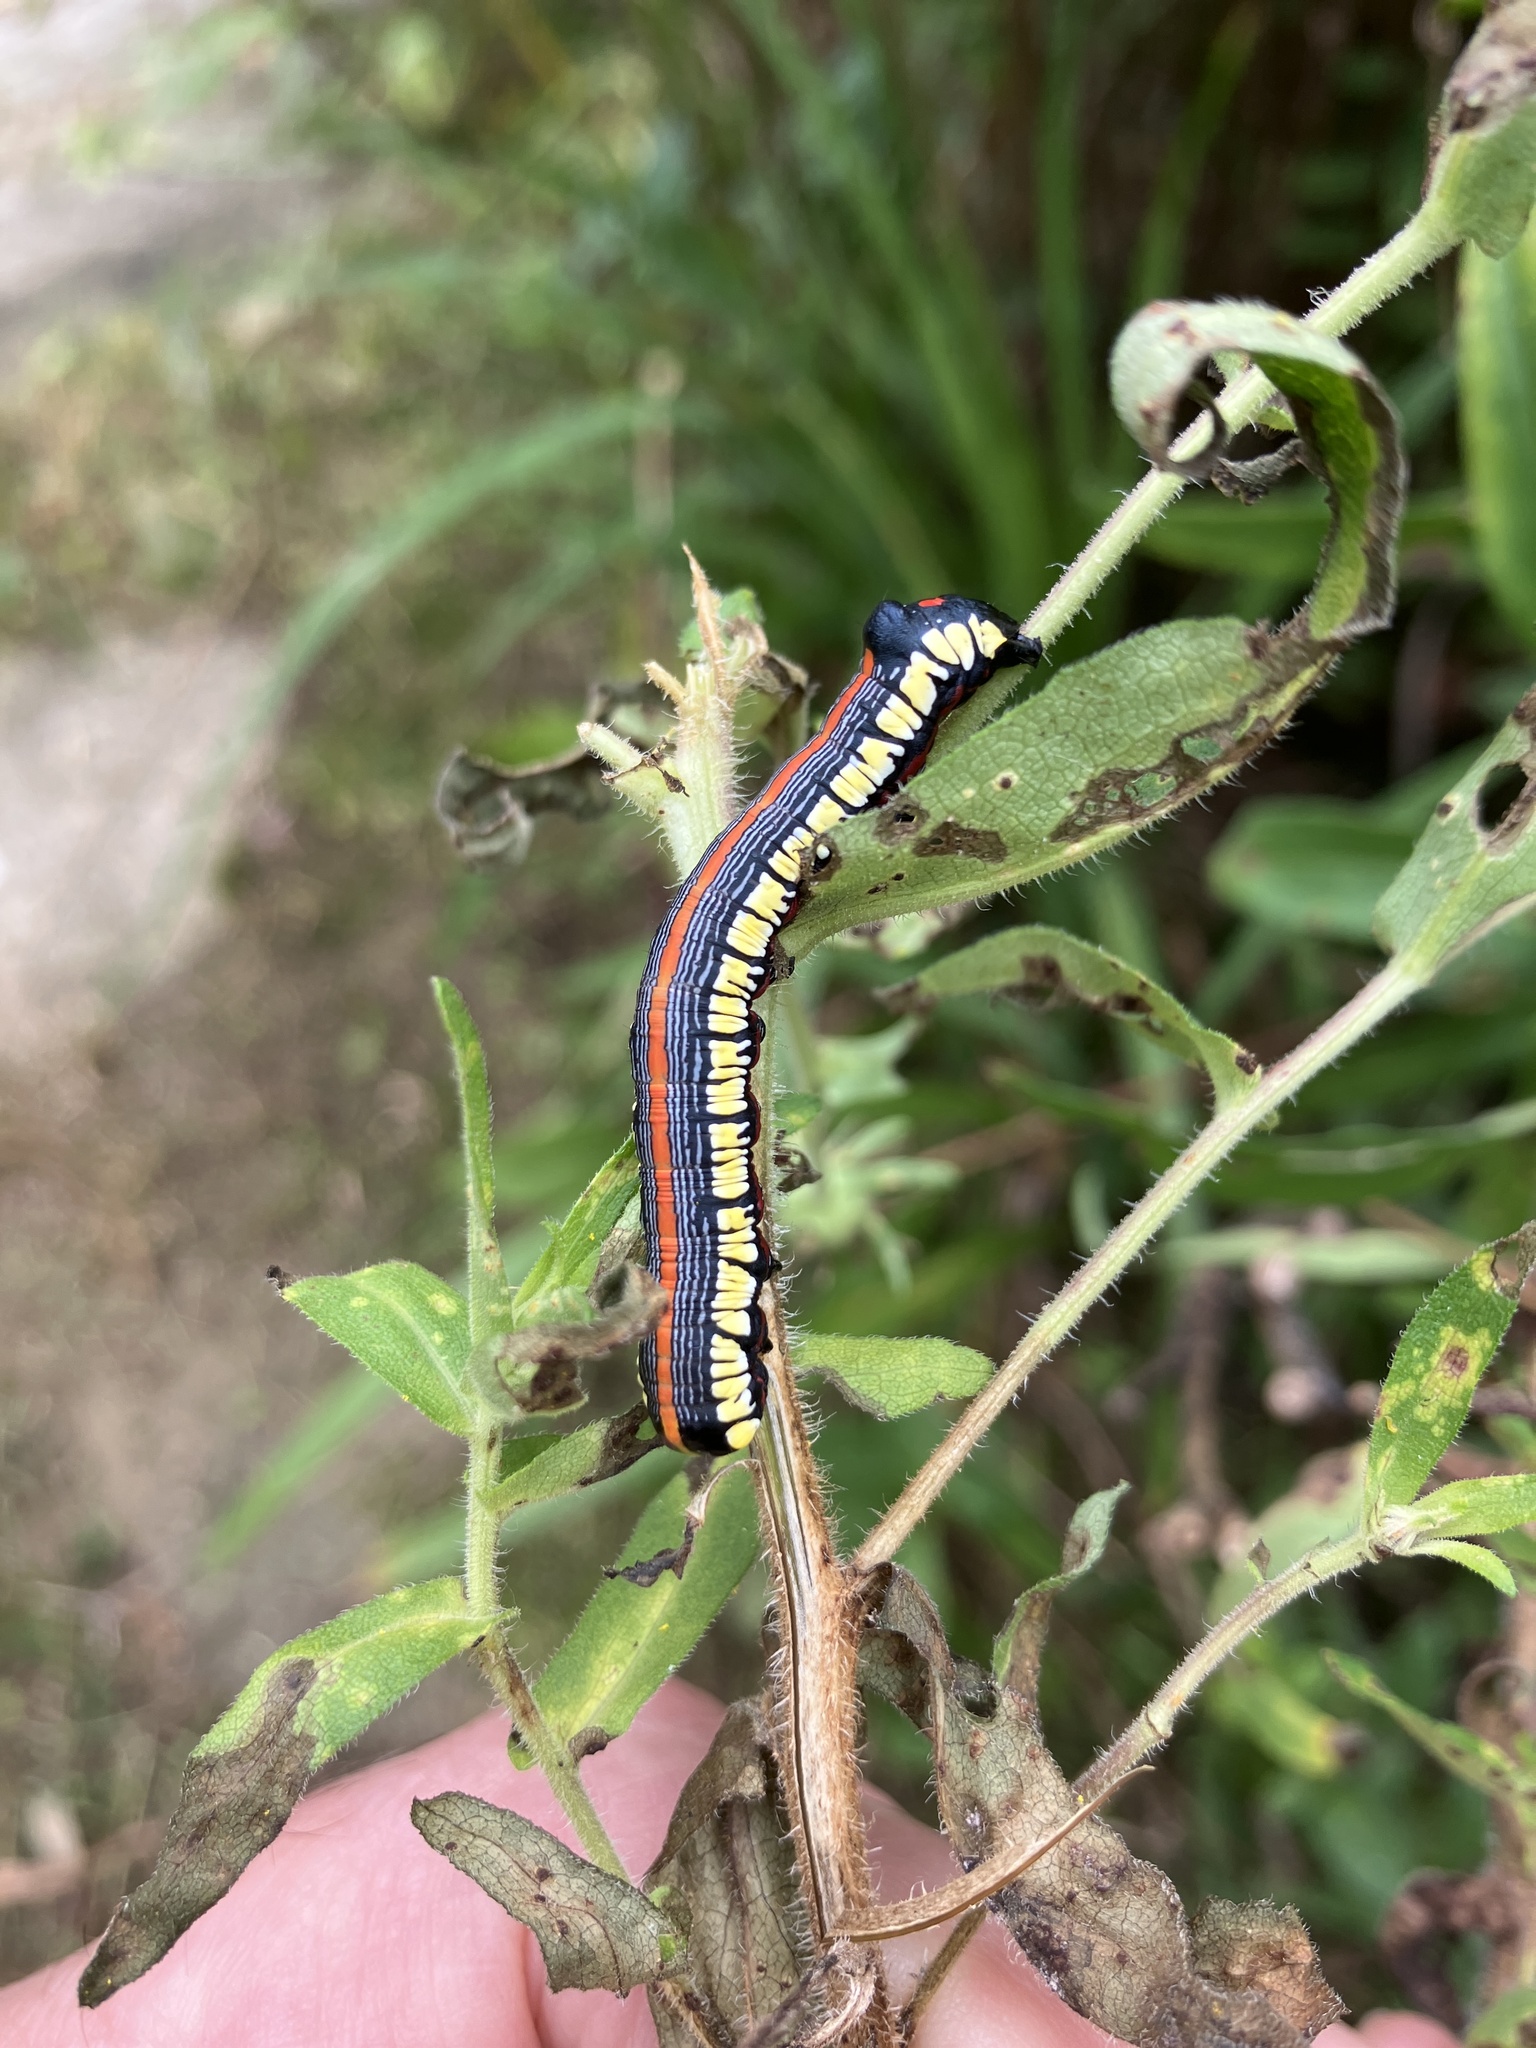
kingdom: Animalia
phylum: Arthropoda
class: Insecta
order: Lepidoptera
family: Noctuidae
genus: Cucullia
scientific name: Cucullia convexipennis
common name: Brown-hooded owlet
